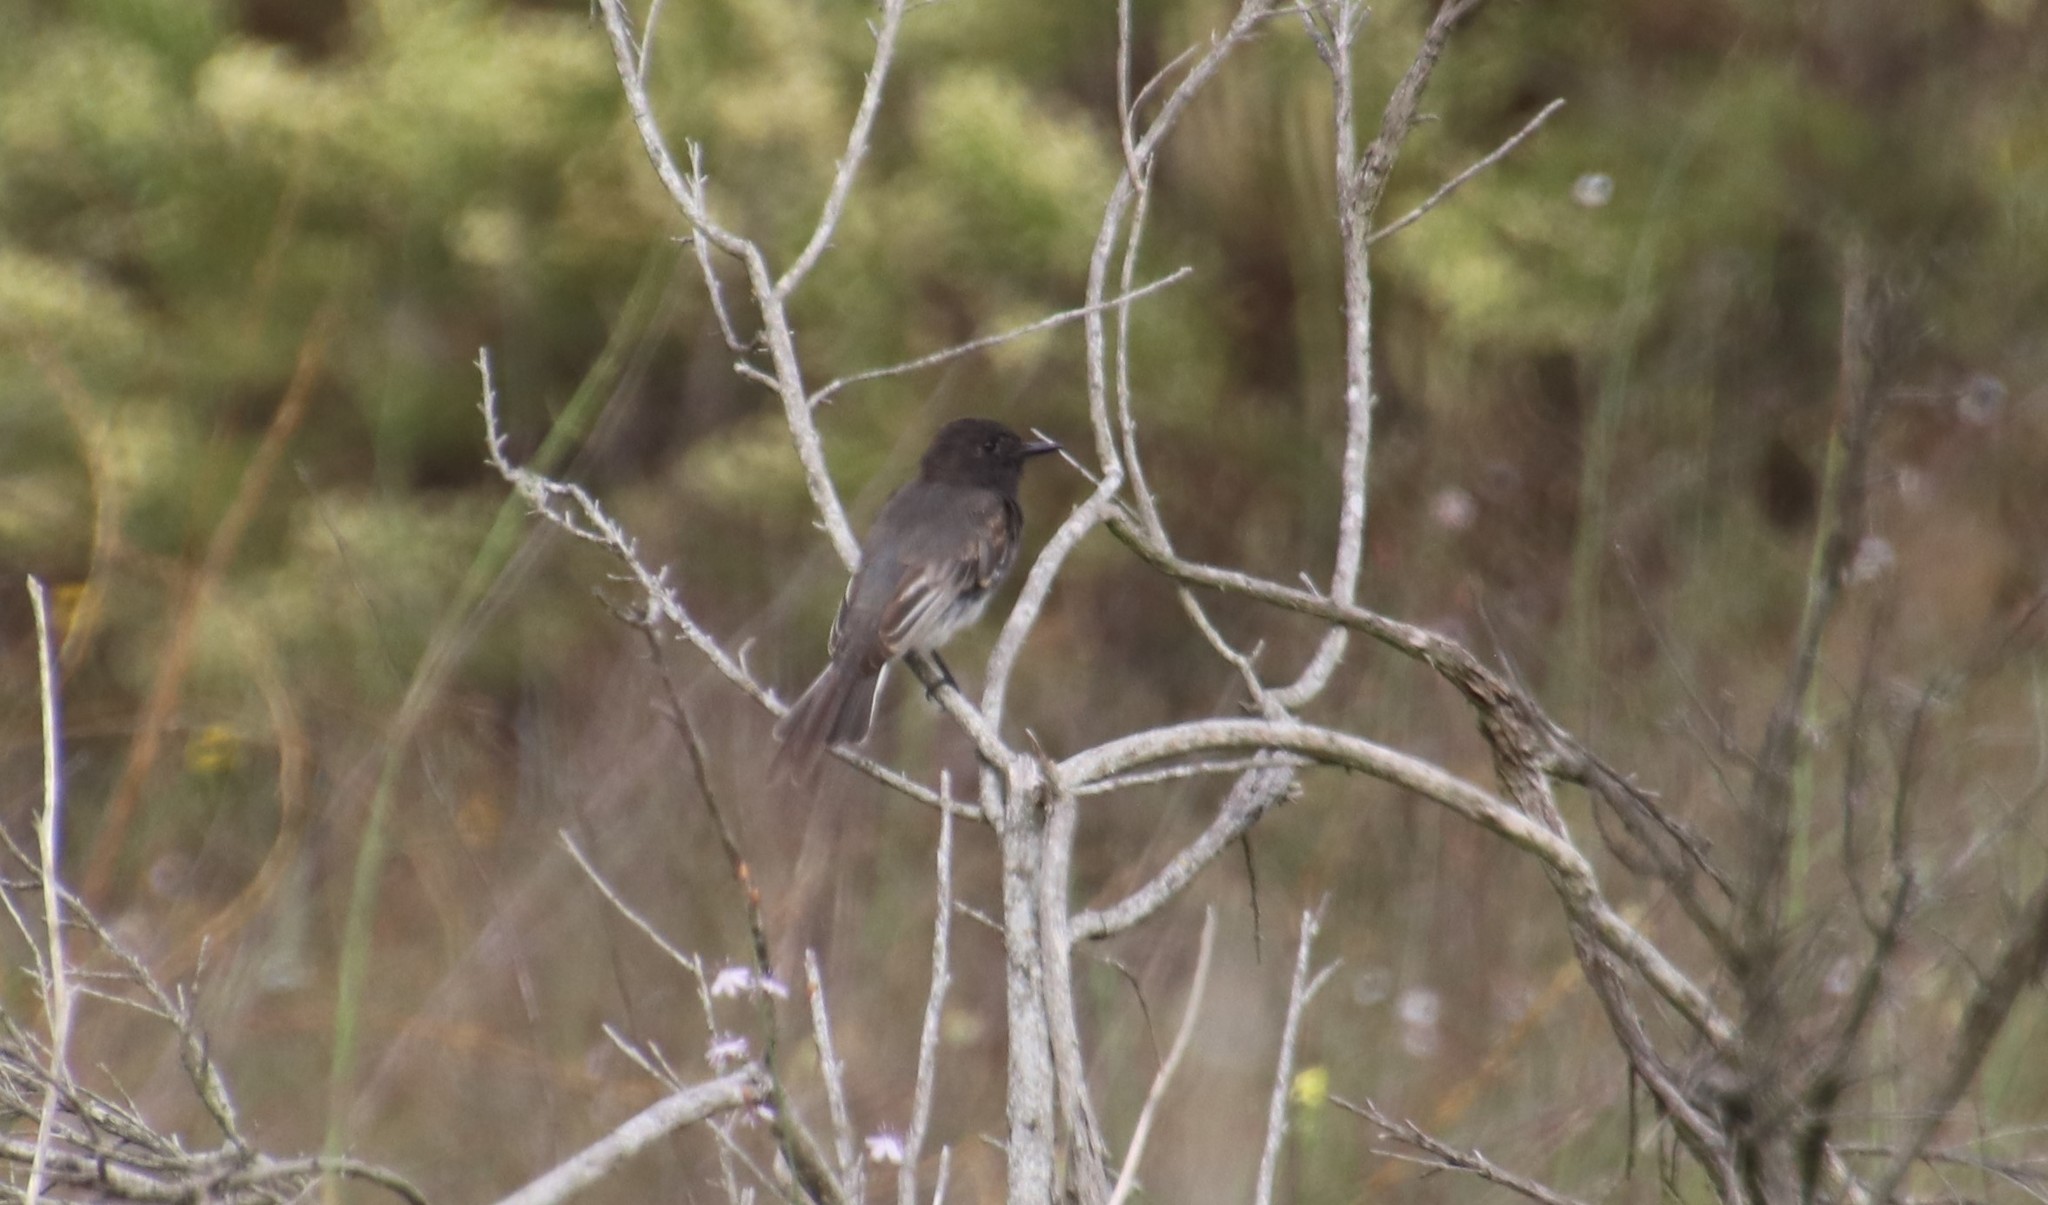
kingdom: Animalia
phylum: Chordata
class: Aves
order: Passeriformes
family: Tyrannidae
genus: Sayornis
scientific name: Sayornis nigricans
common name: Black phoebe
